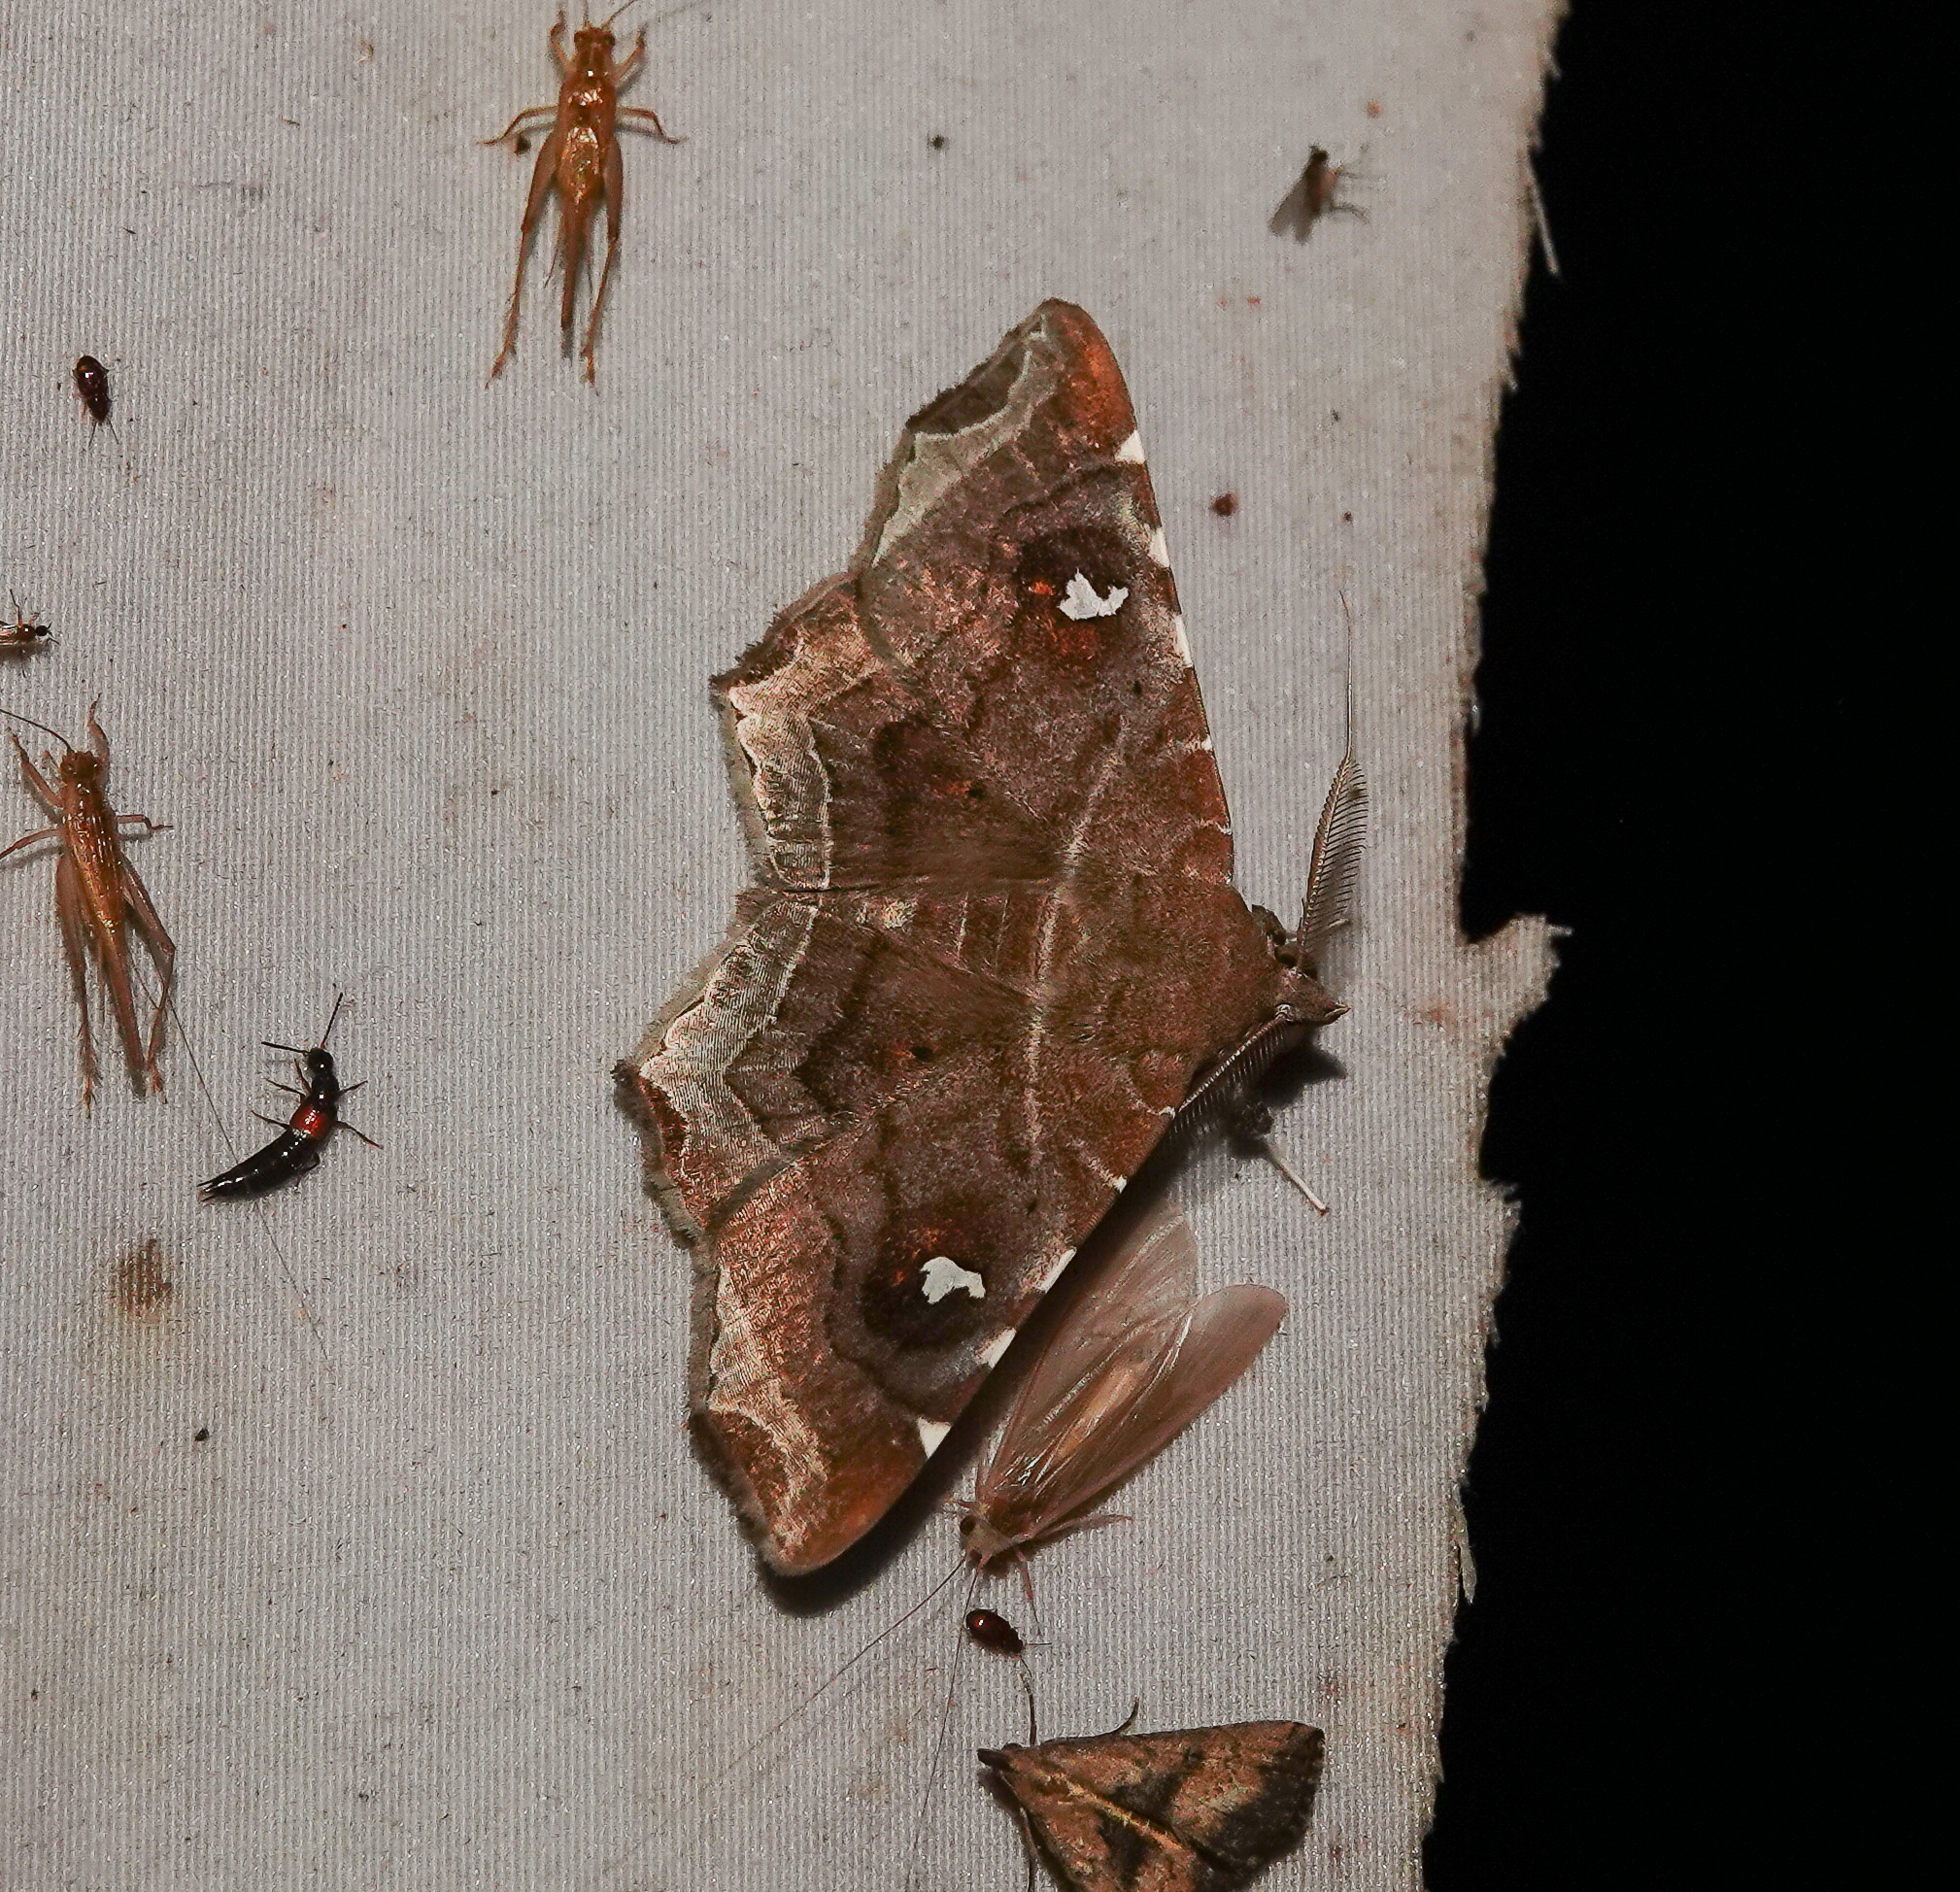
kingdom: Animalia
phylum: Arthropoda
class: Insecta
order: Lepidoptera
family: Erebidae
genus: Episparis
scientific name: Episparis liturata
